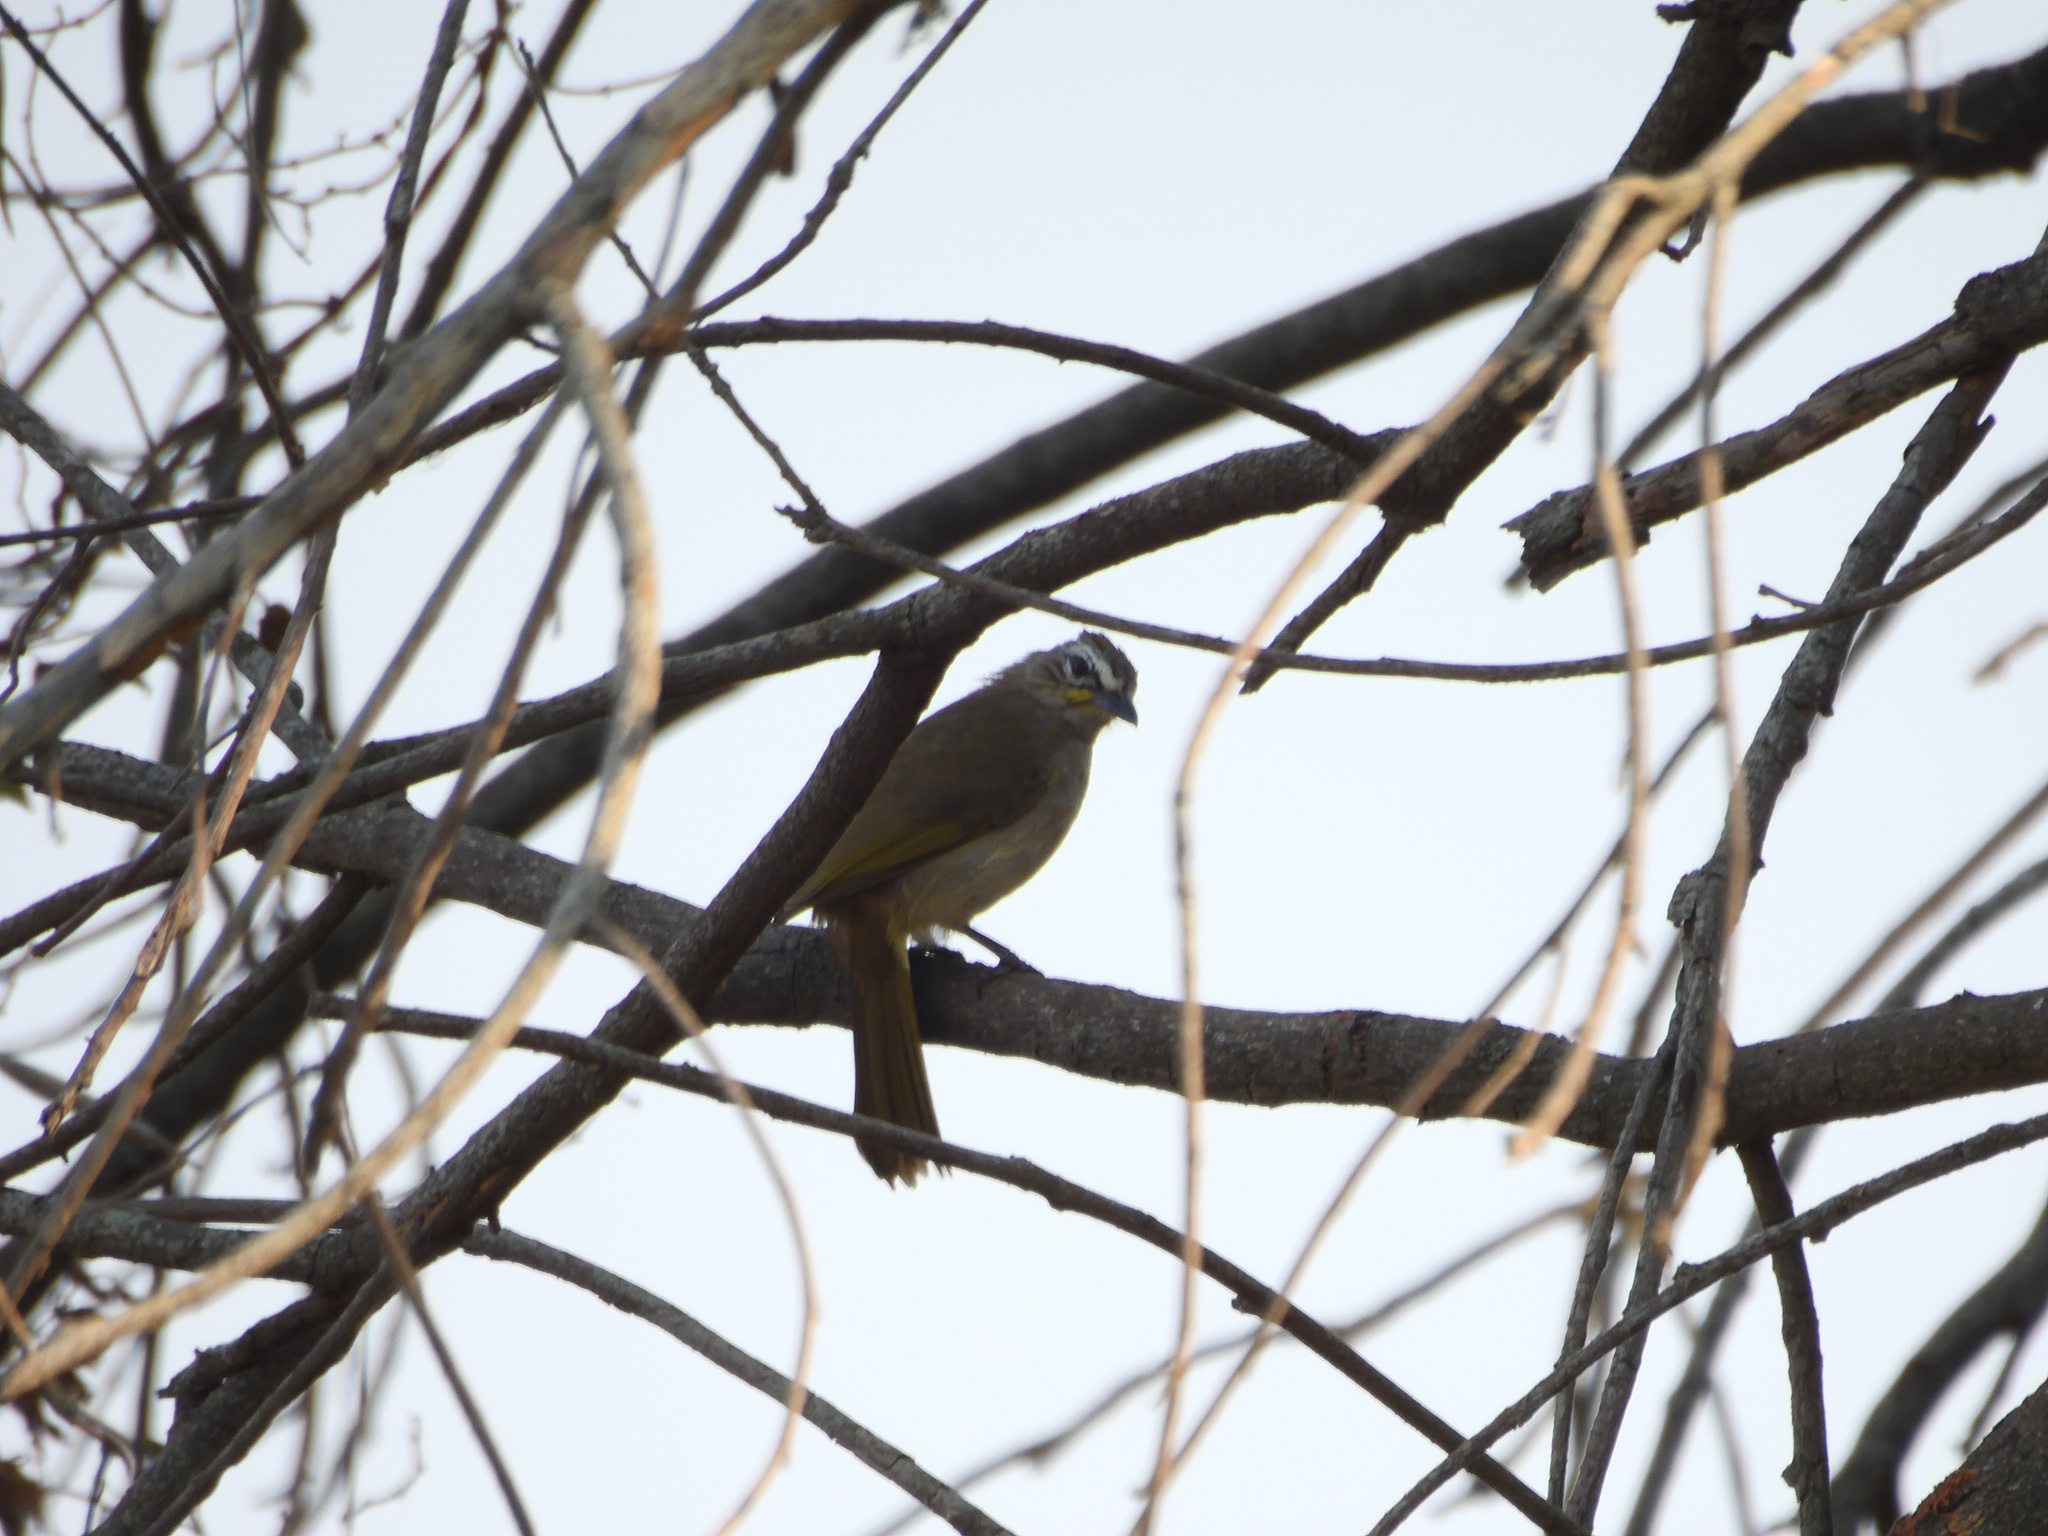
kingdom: Animalia
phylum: Chordata
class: Aves
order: Passeriformes
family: Pycnonotidae
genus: Pycnonotus
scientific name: Pycnonotus luteolus
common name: White-browed bulbul
